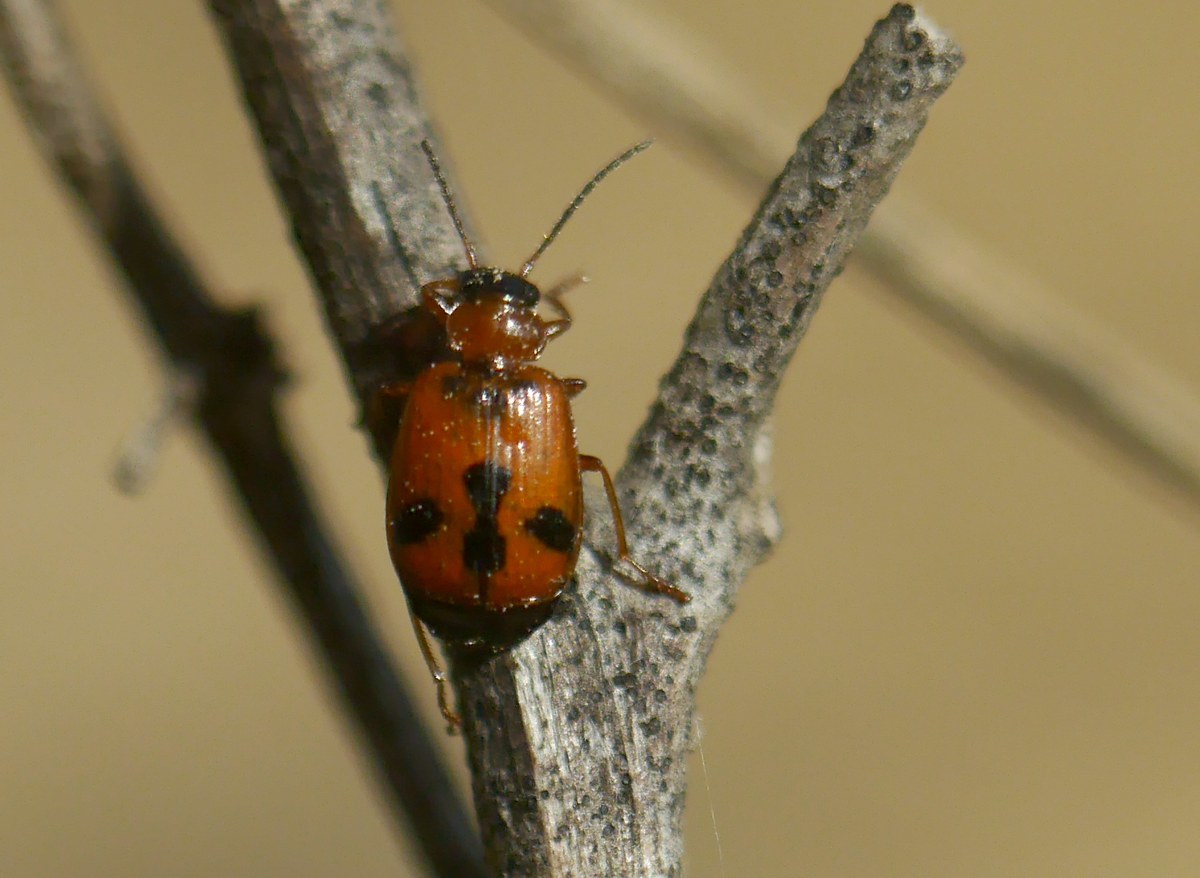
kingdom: Animalia
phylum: Arthropoda
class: Insecta
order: Coleoptera
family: Carabidae
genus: Lebia
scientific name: Lebia trimaculata
